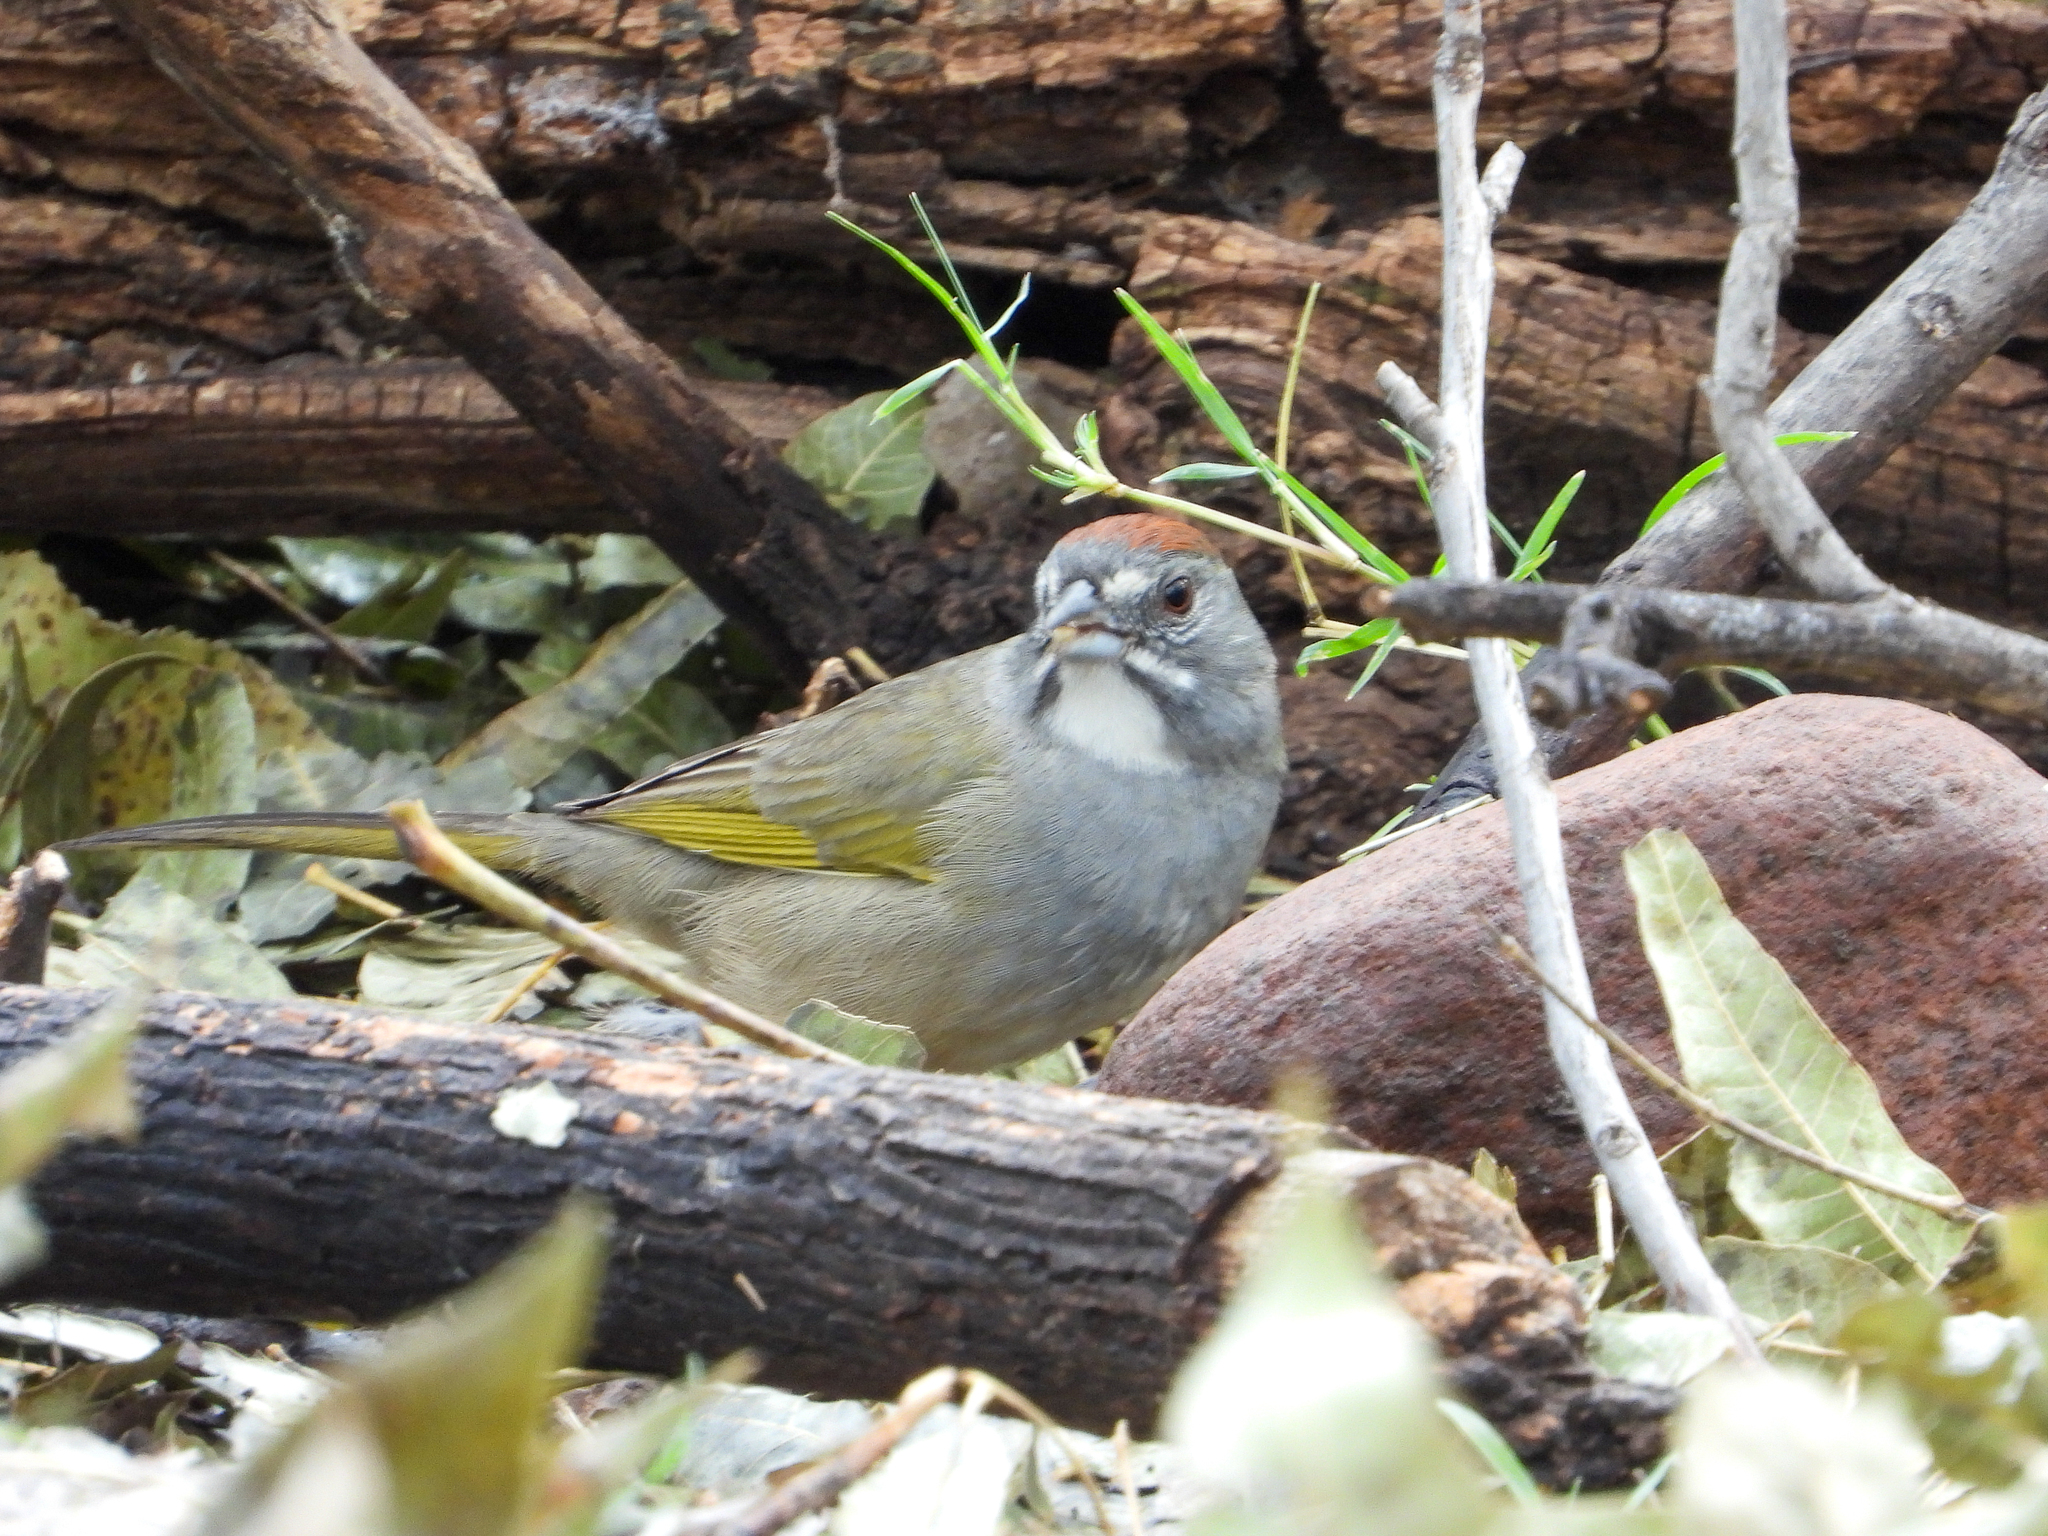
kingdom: Animalia
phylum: Chordata
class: Aves
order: Passeriformes
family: Passerellidae
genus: Pipilo
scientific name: Pipilo chlorurus
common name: Green-tailed towhee
